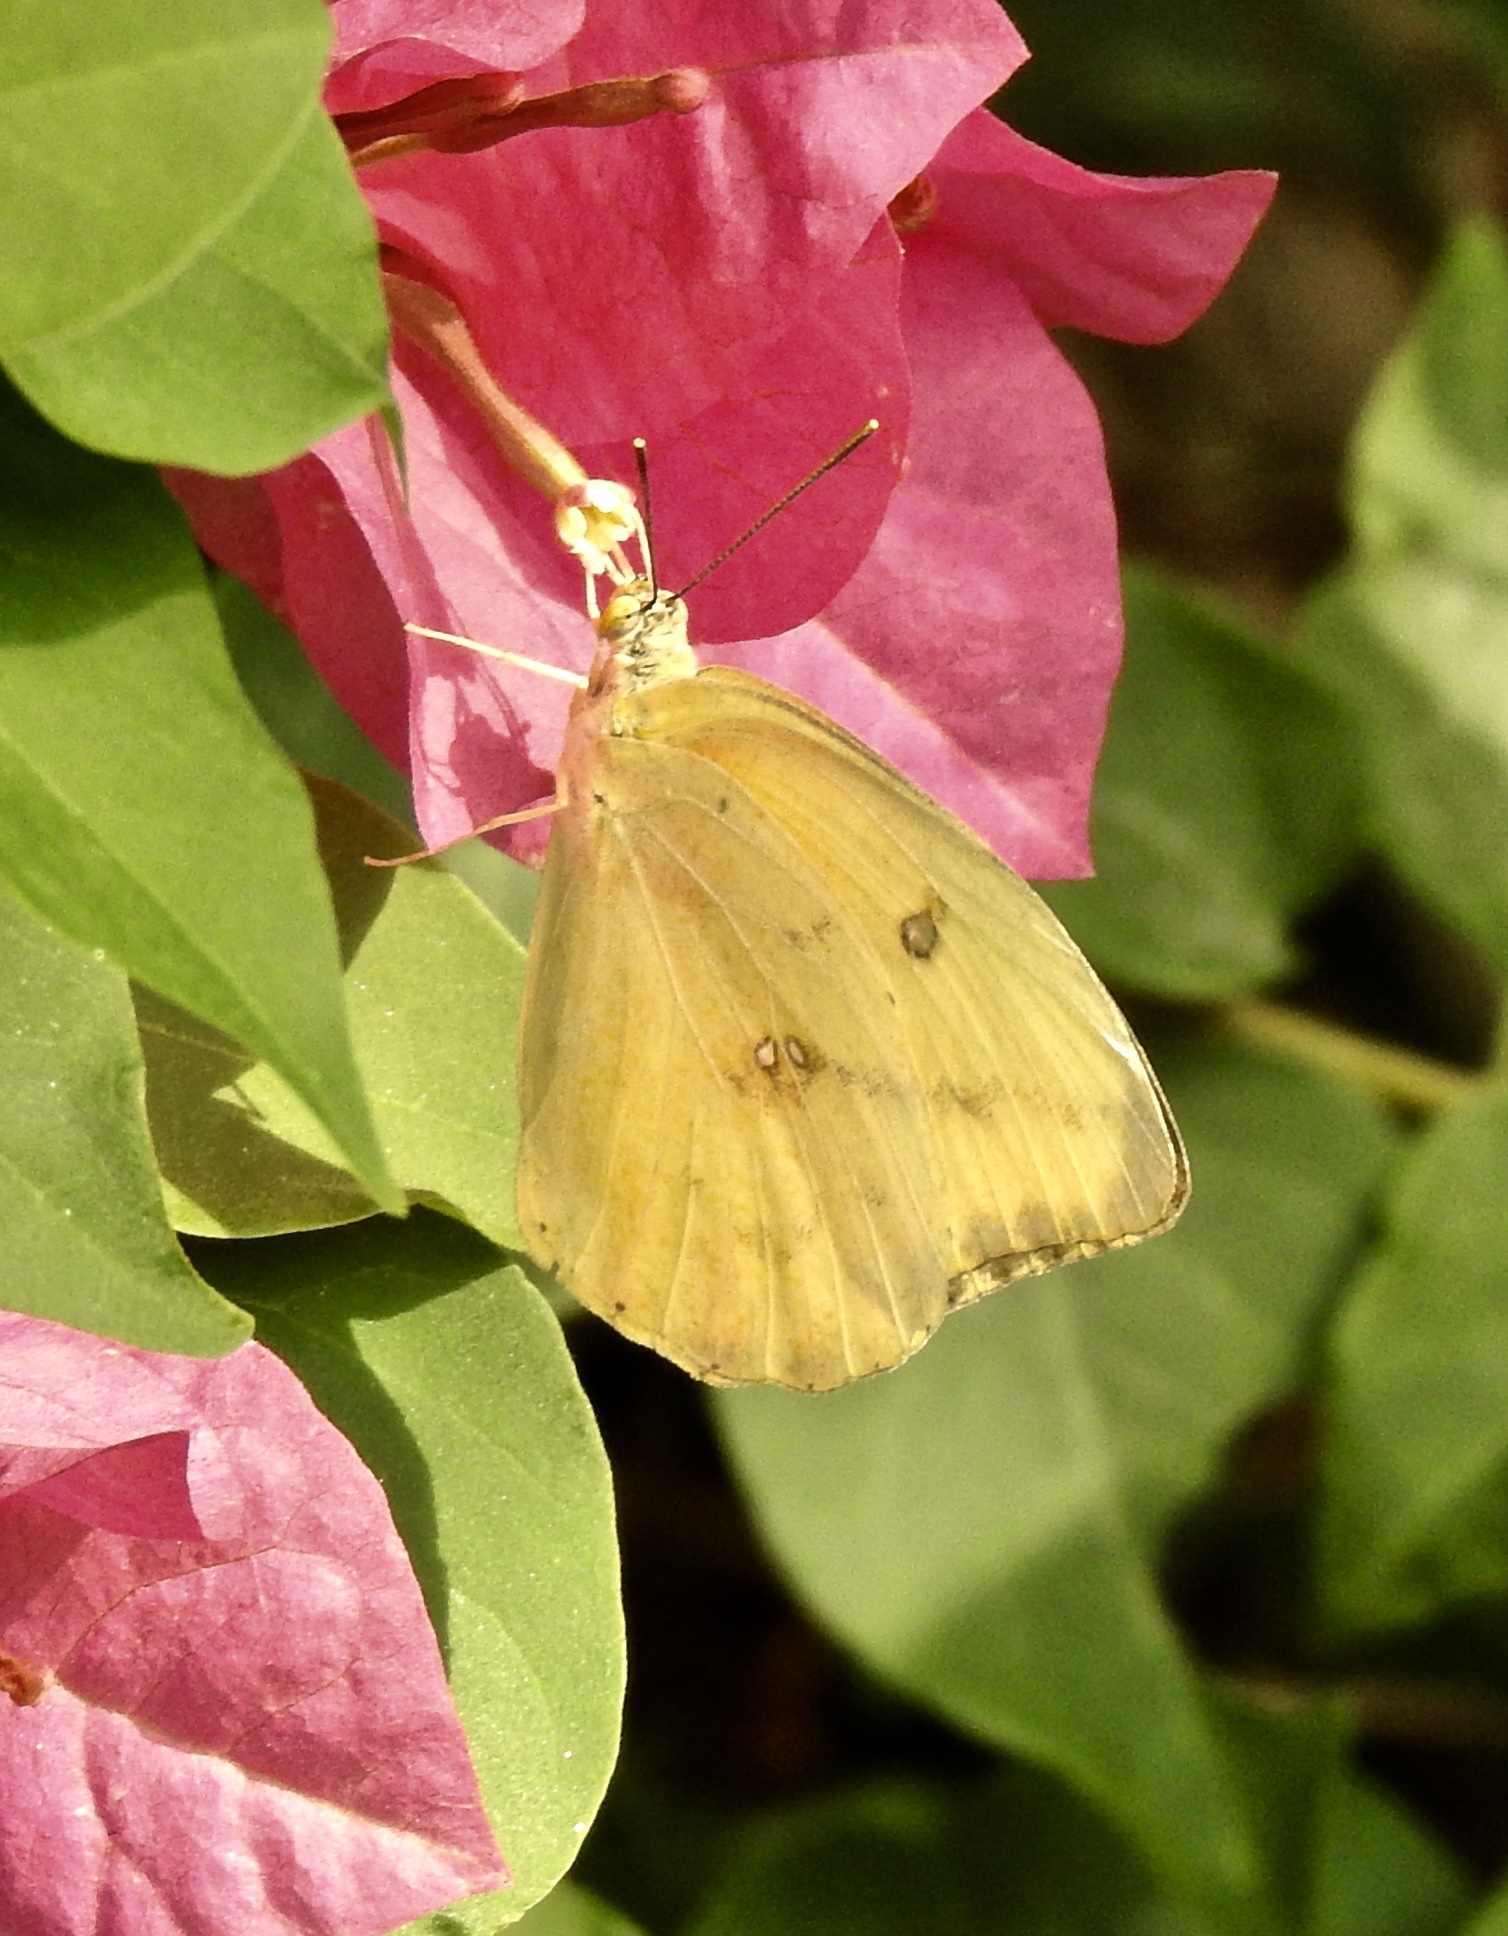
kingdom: Animalia
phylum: Arthropoda
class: Insecta
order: Lepidoptera
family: Pieridae
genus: Phoebis
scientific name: Phoebis agarithe
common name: Large orange sulphur
